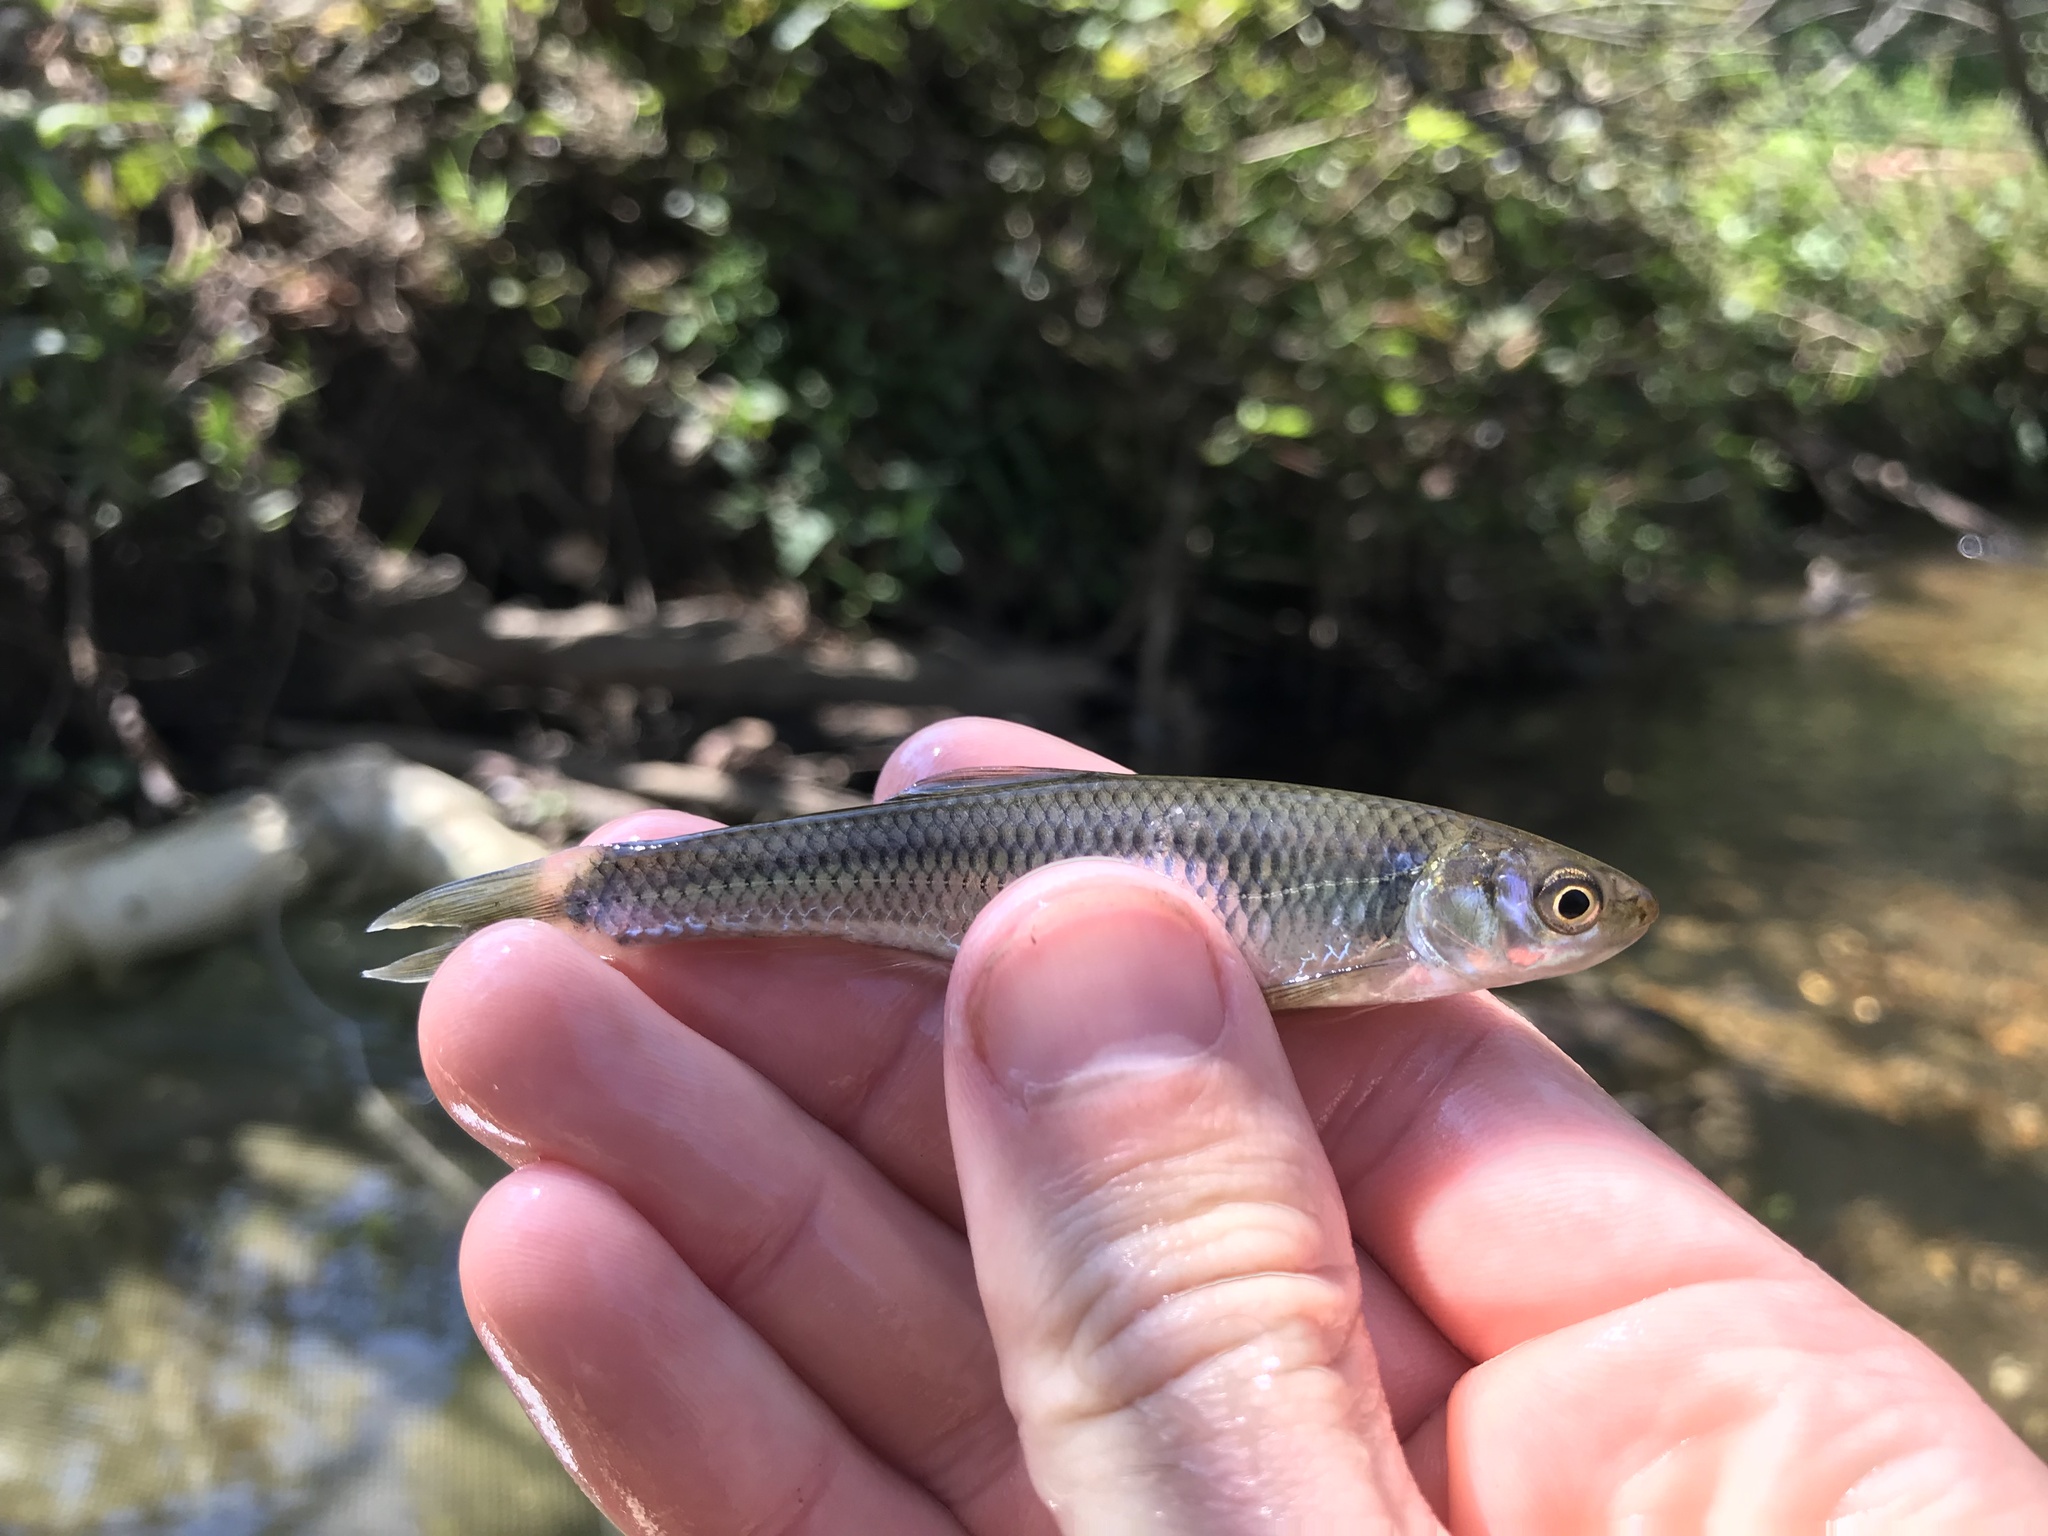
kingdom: Animalia
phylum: Chordata
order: Cypriniformes
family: Cyprinidae
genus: Cyprinella
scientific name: Cyprinella galactura
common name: Whitetail shiner
